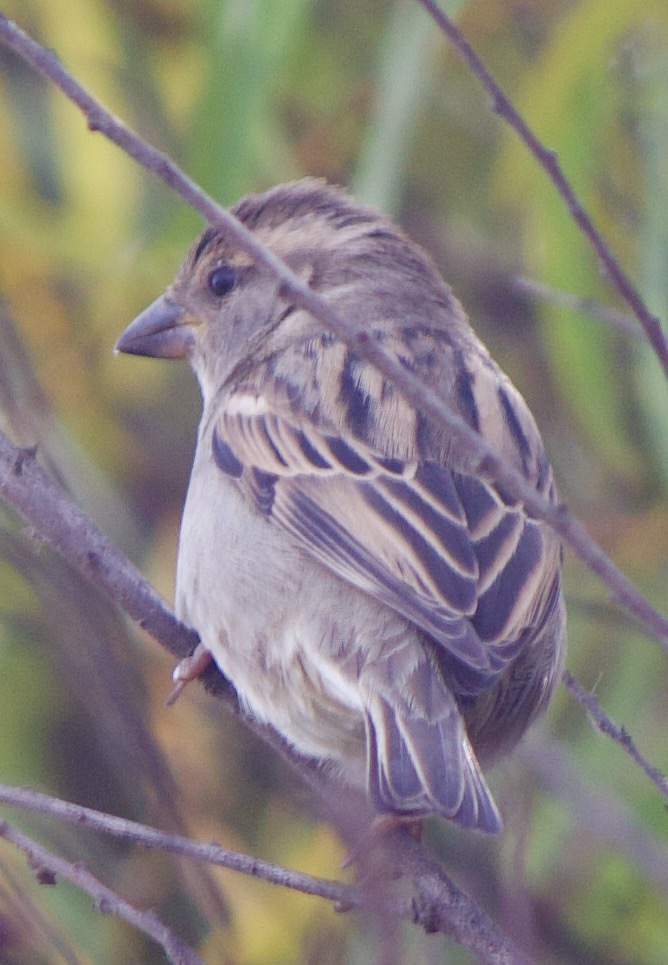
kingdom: Animalia
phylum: Chordata
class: Aves
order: Passeriformes
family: Passeridae
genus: Passer
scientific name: Passer domesticus
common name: House sparrow
